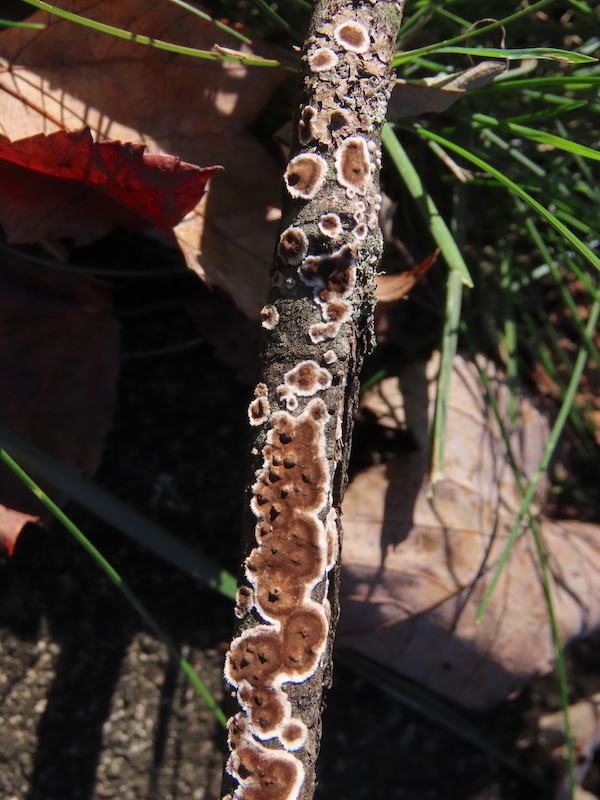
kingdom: Fungi
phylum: Basidiomycota
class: Agaricomycetes
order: Russulales
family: Peniophoraceae
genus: Peniophora
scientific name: Peniophora albobadia
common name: Giraffe spots
